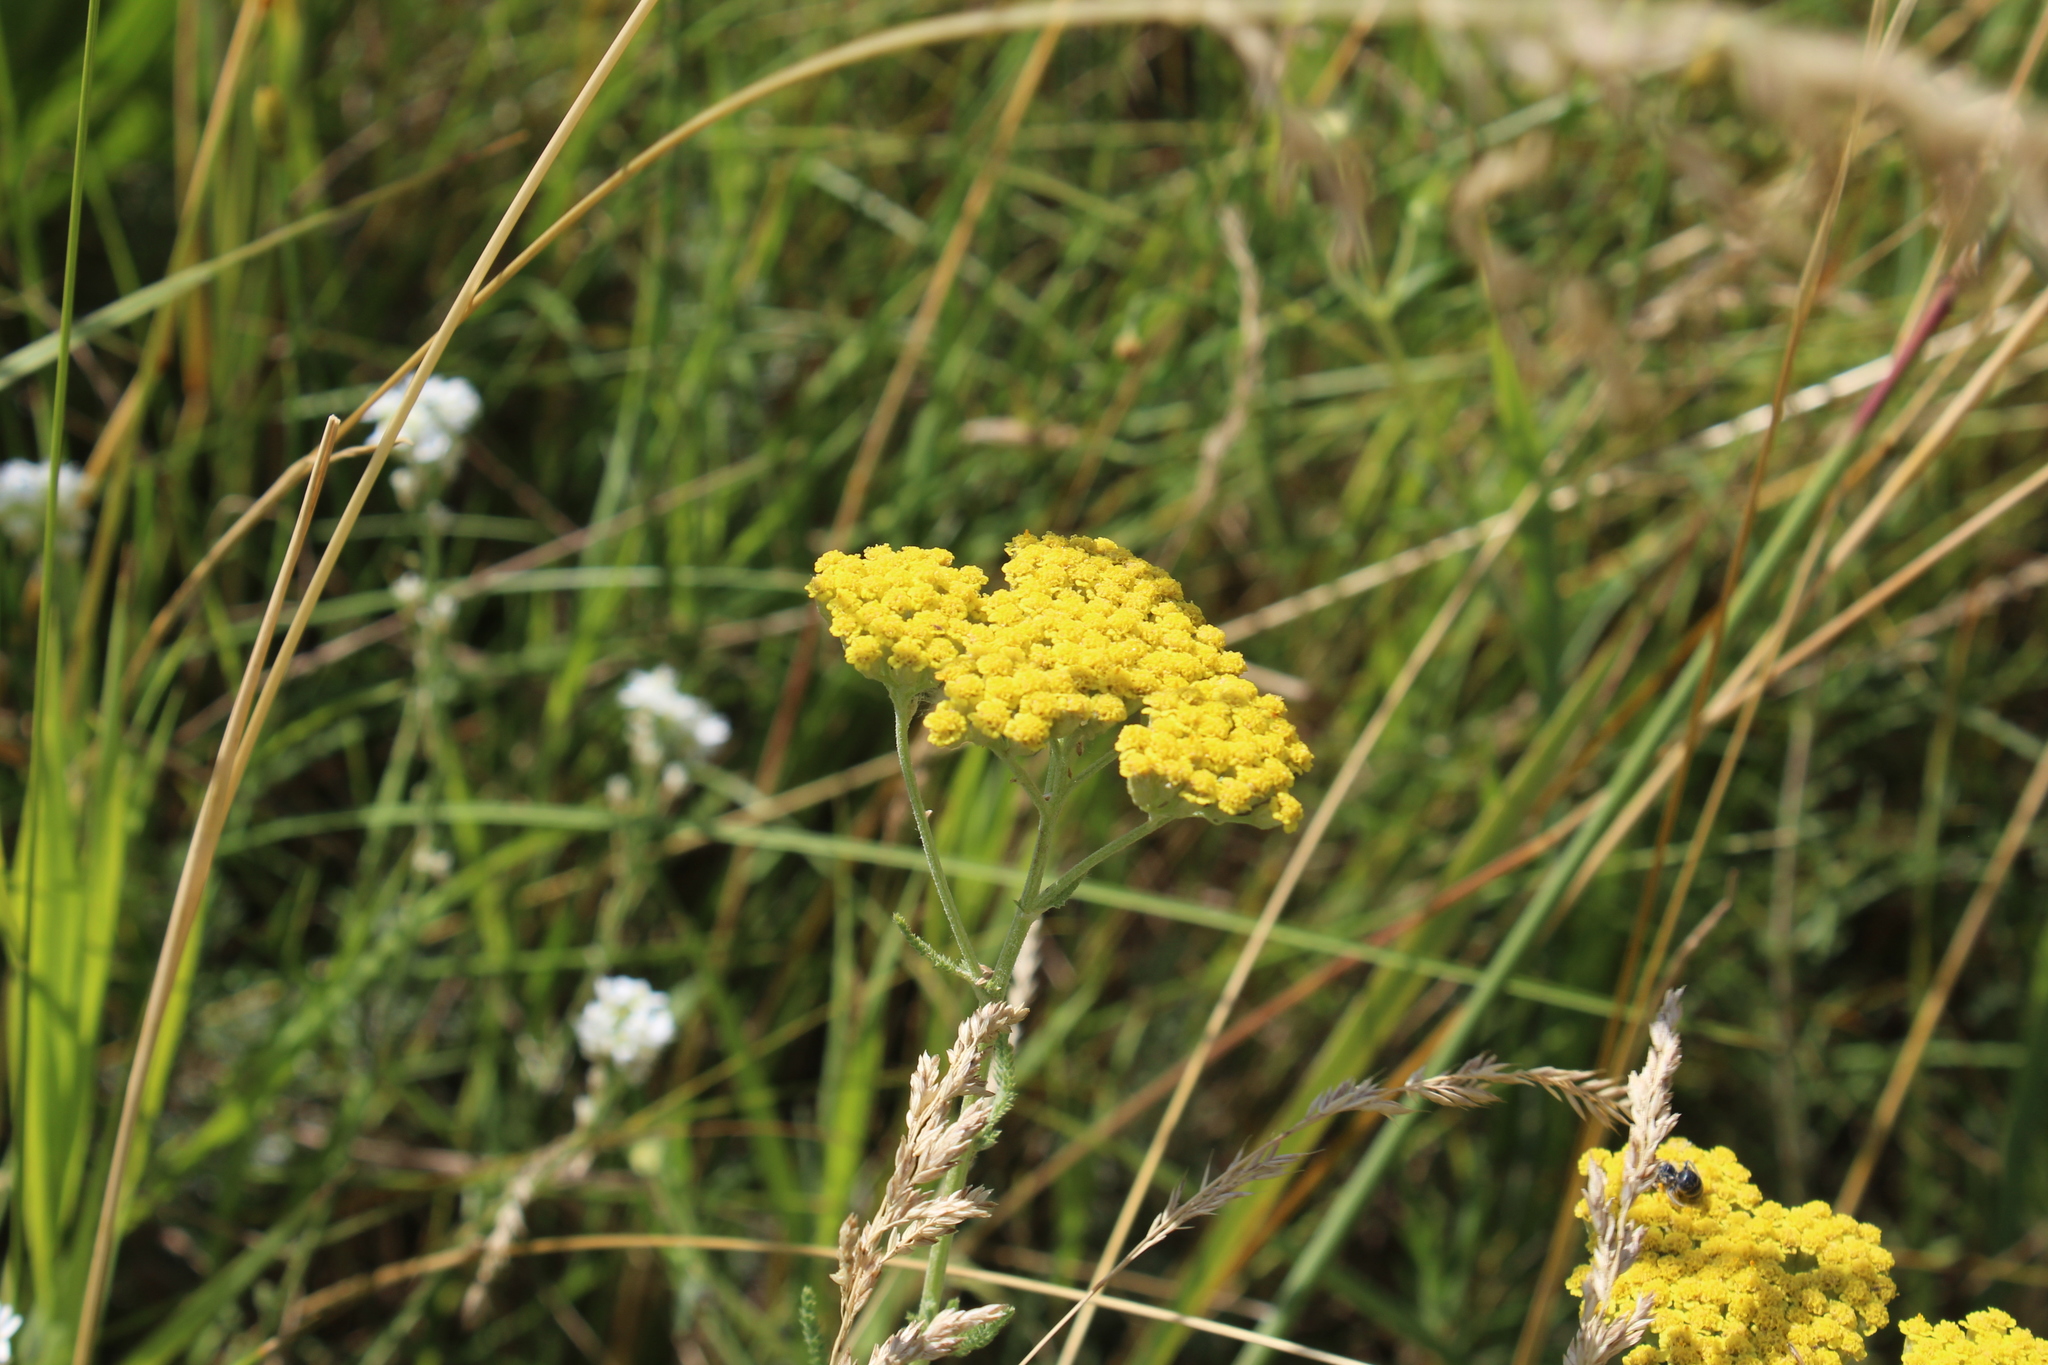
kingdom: Plantae
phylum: Tracheophyta
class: Magnoliopsida
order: Asterales
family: Asteraceae
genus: Achillea
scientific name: Achillea micrantha
